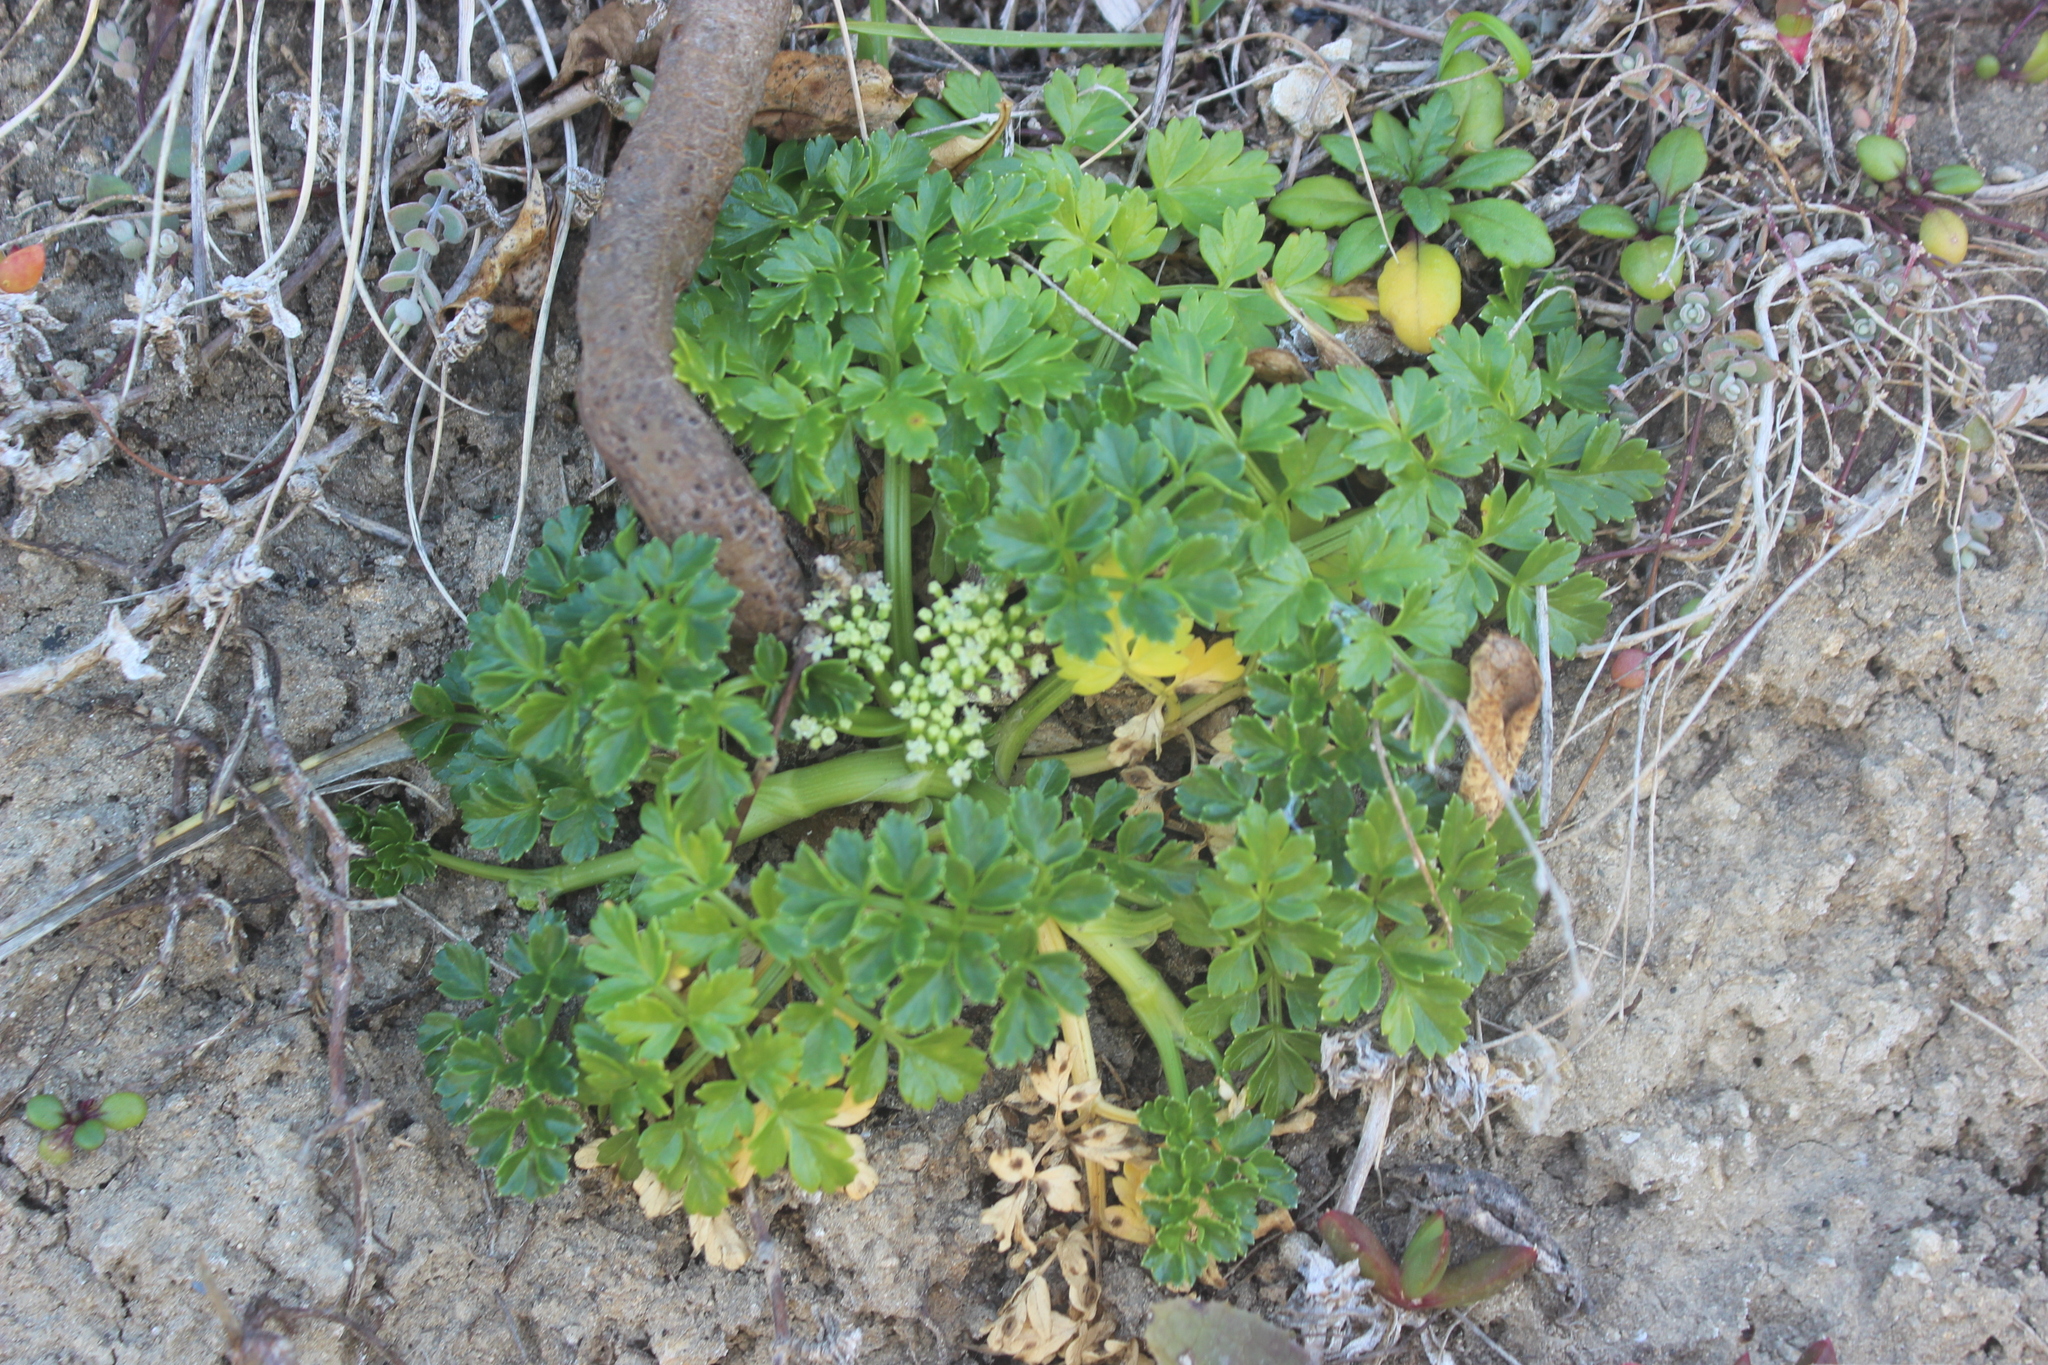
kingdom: Plantae
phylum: Tracheophyta
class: Magnoliopsida
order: Apiales
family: Apiaceae
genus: Apium
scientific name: Apium prostratum
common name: Prostrate marshwort
